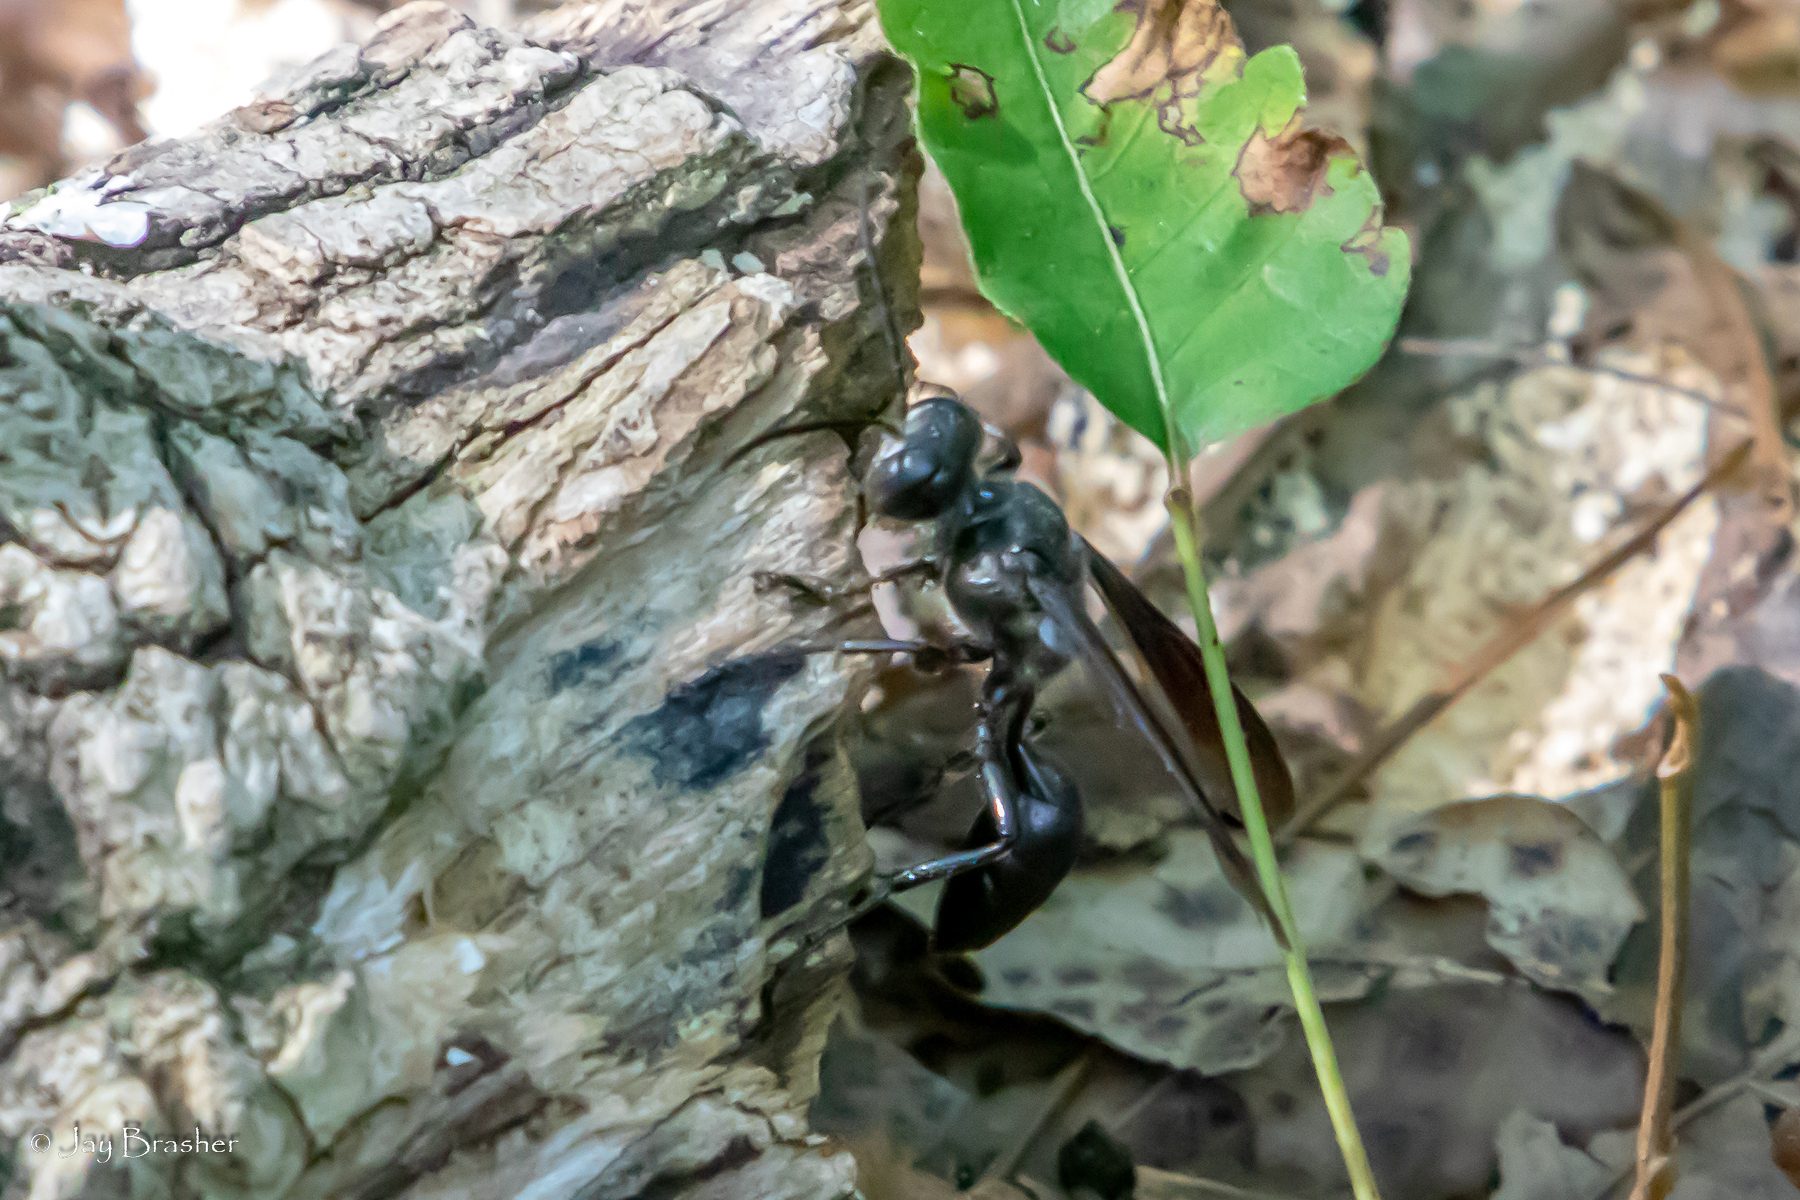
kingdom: Animalia
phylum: Arthropoda
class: Insecta
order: Hymenoptera
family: Sphecidae
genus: Isodontia
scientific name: Isodontia apicalis
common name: Mud dauber
